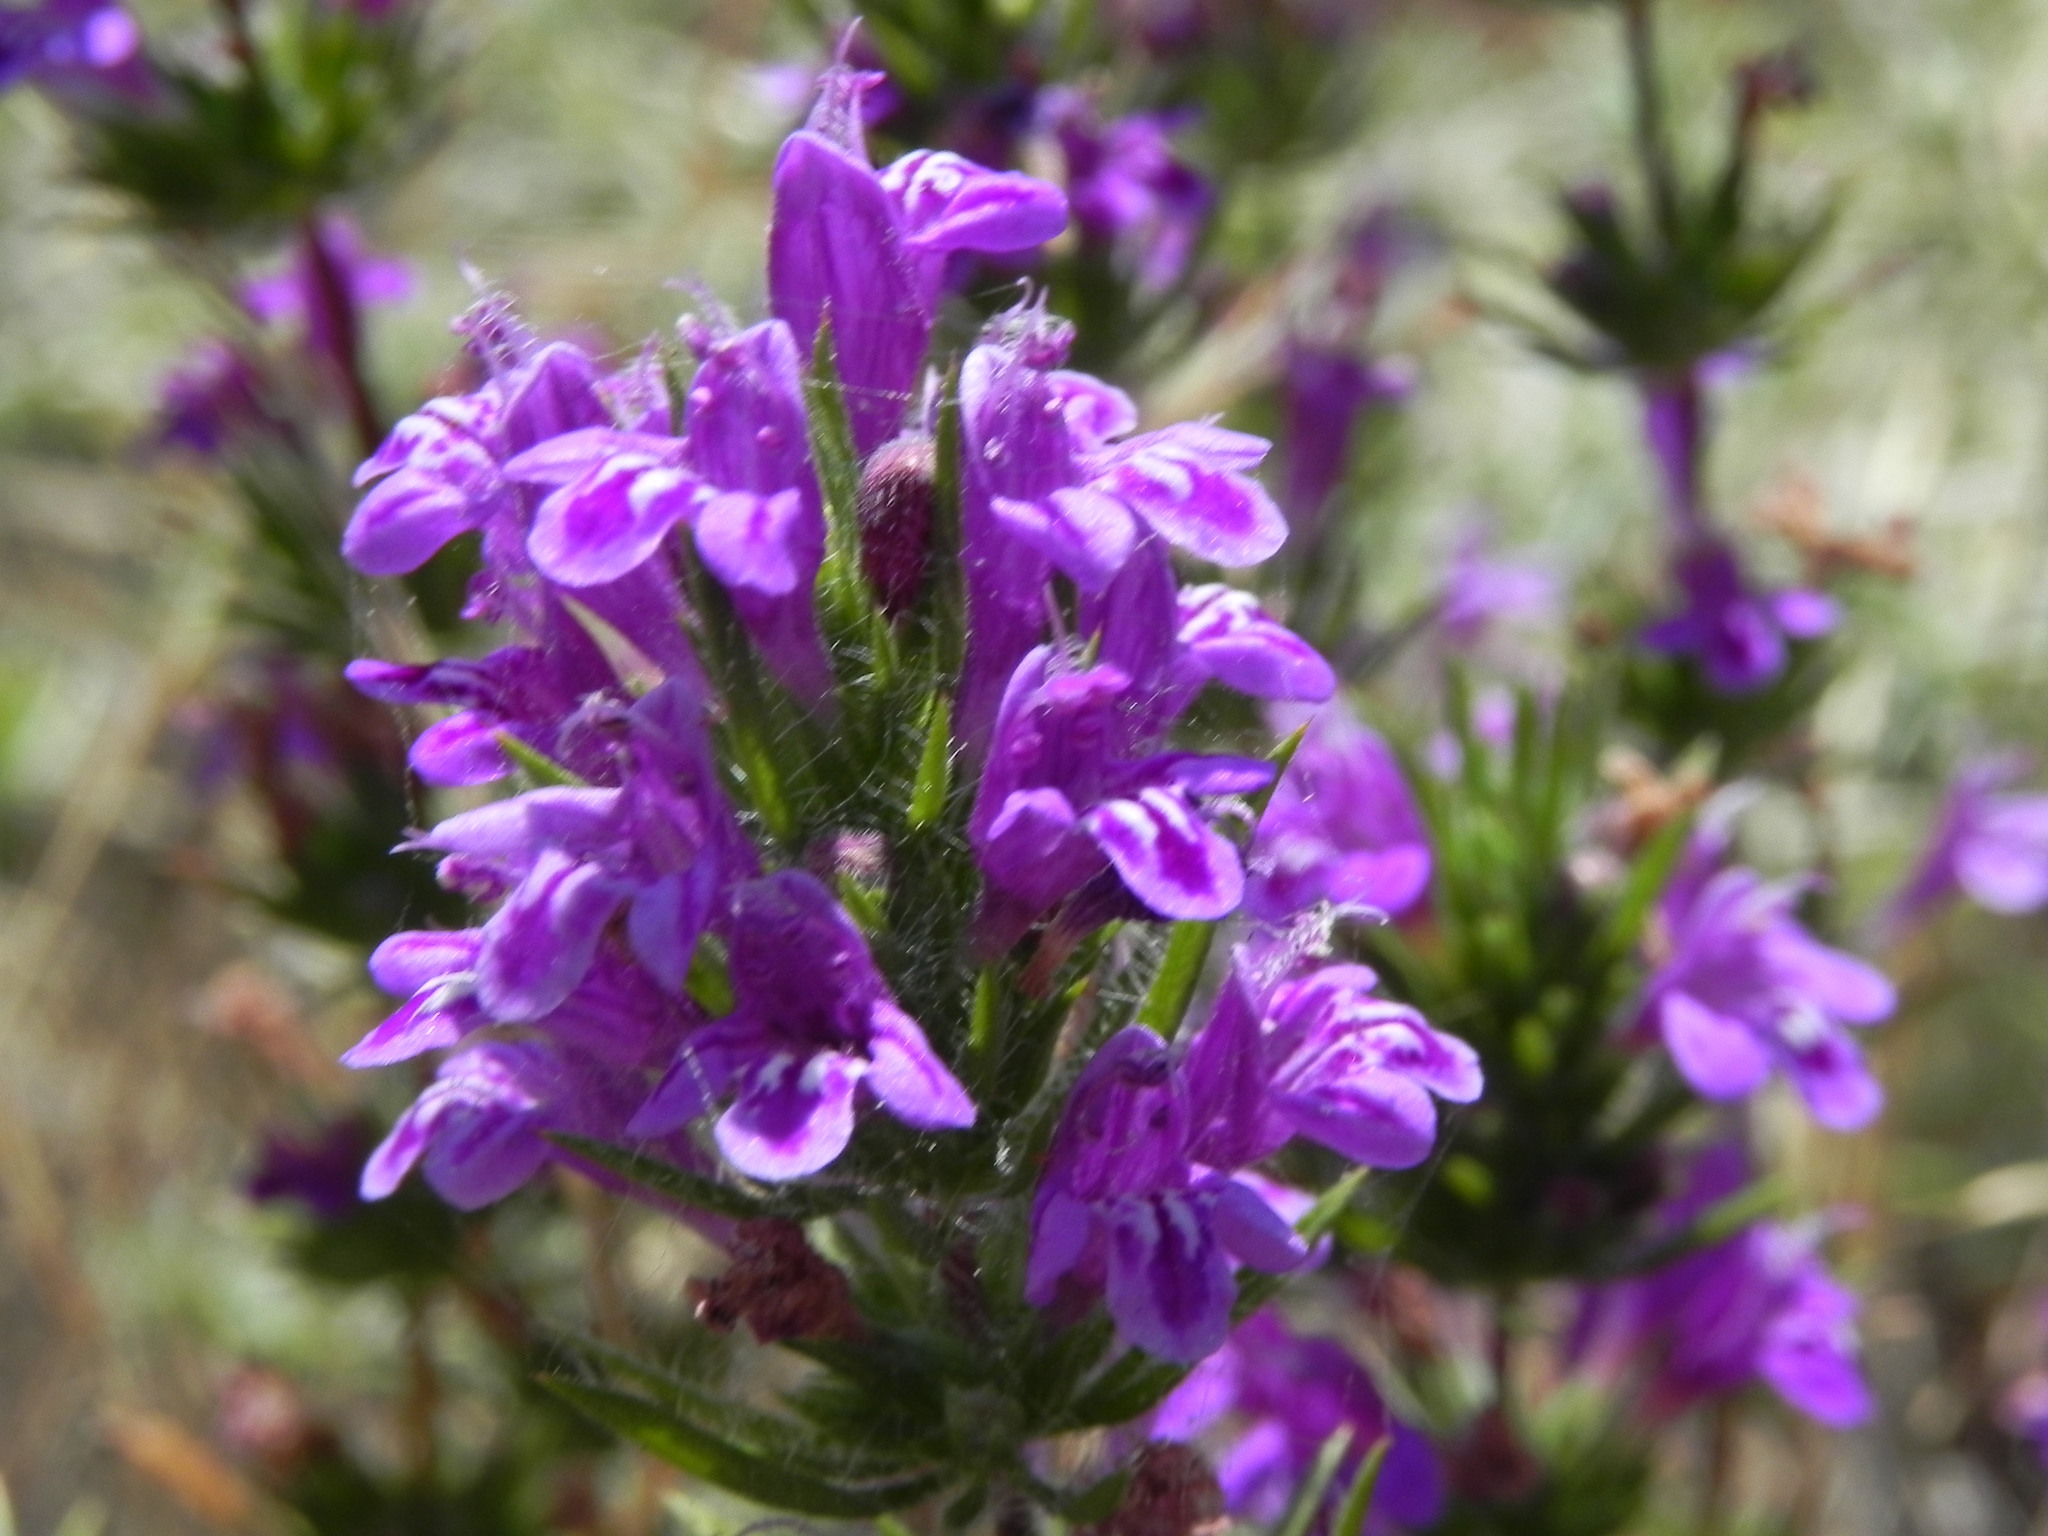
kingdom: Plantae
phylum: Tracheophyta
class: Magnoliopsida
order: Lamiales
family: Lamiaceae
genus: Pogogyne
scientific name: Pogogyne nudiuscula
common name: Otay mesa-mint
